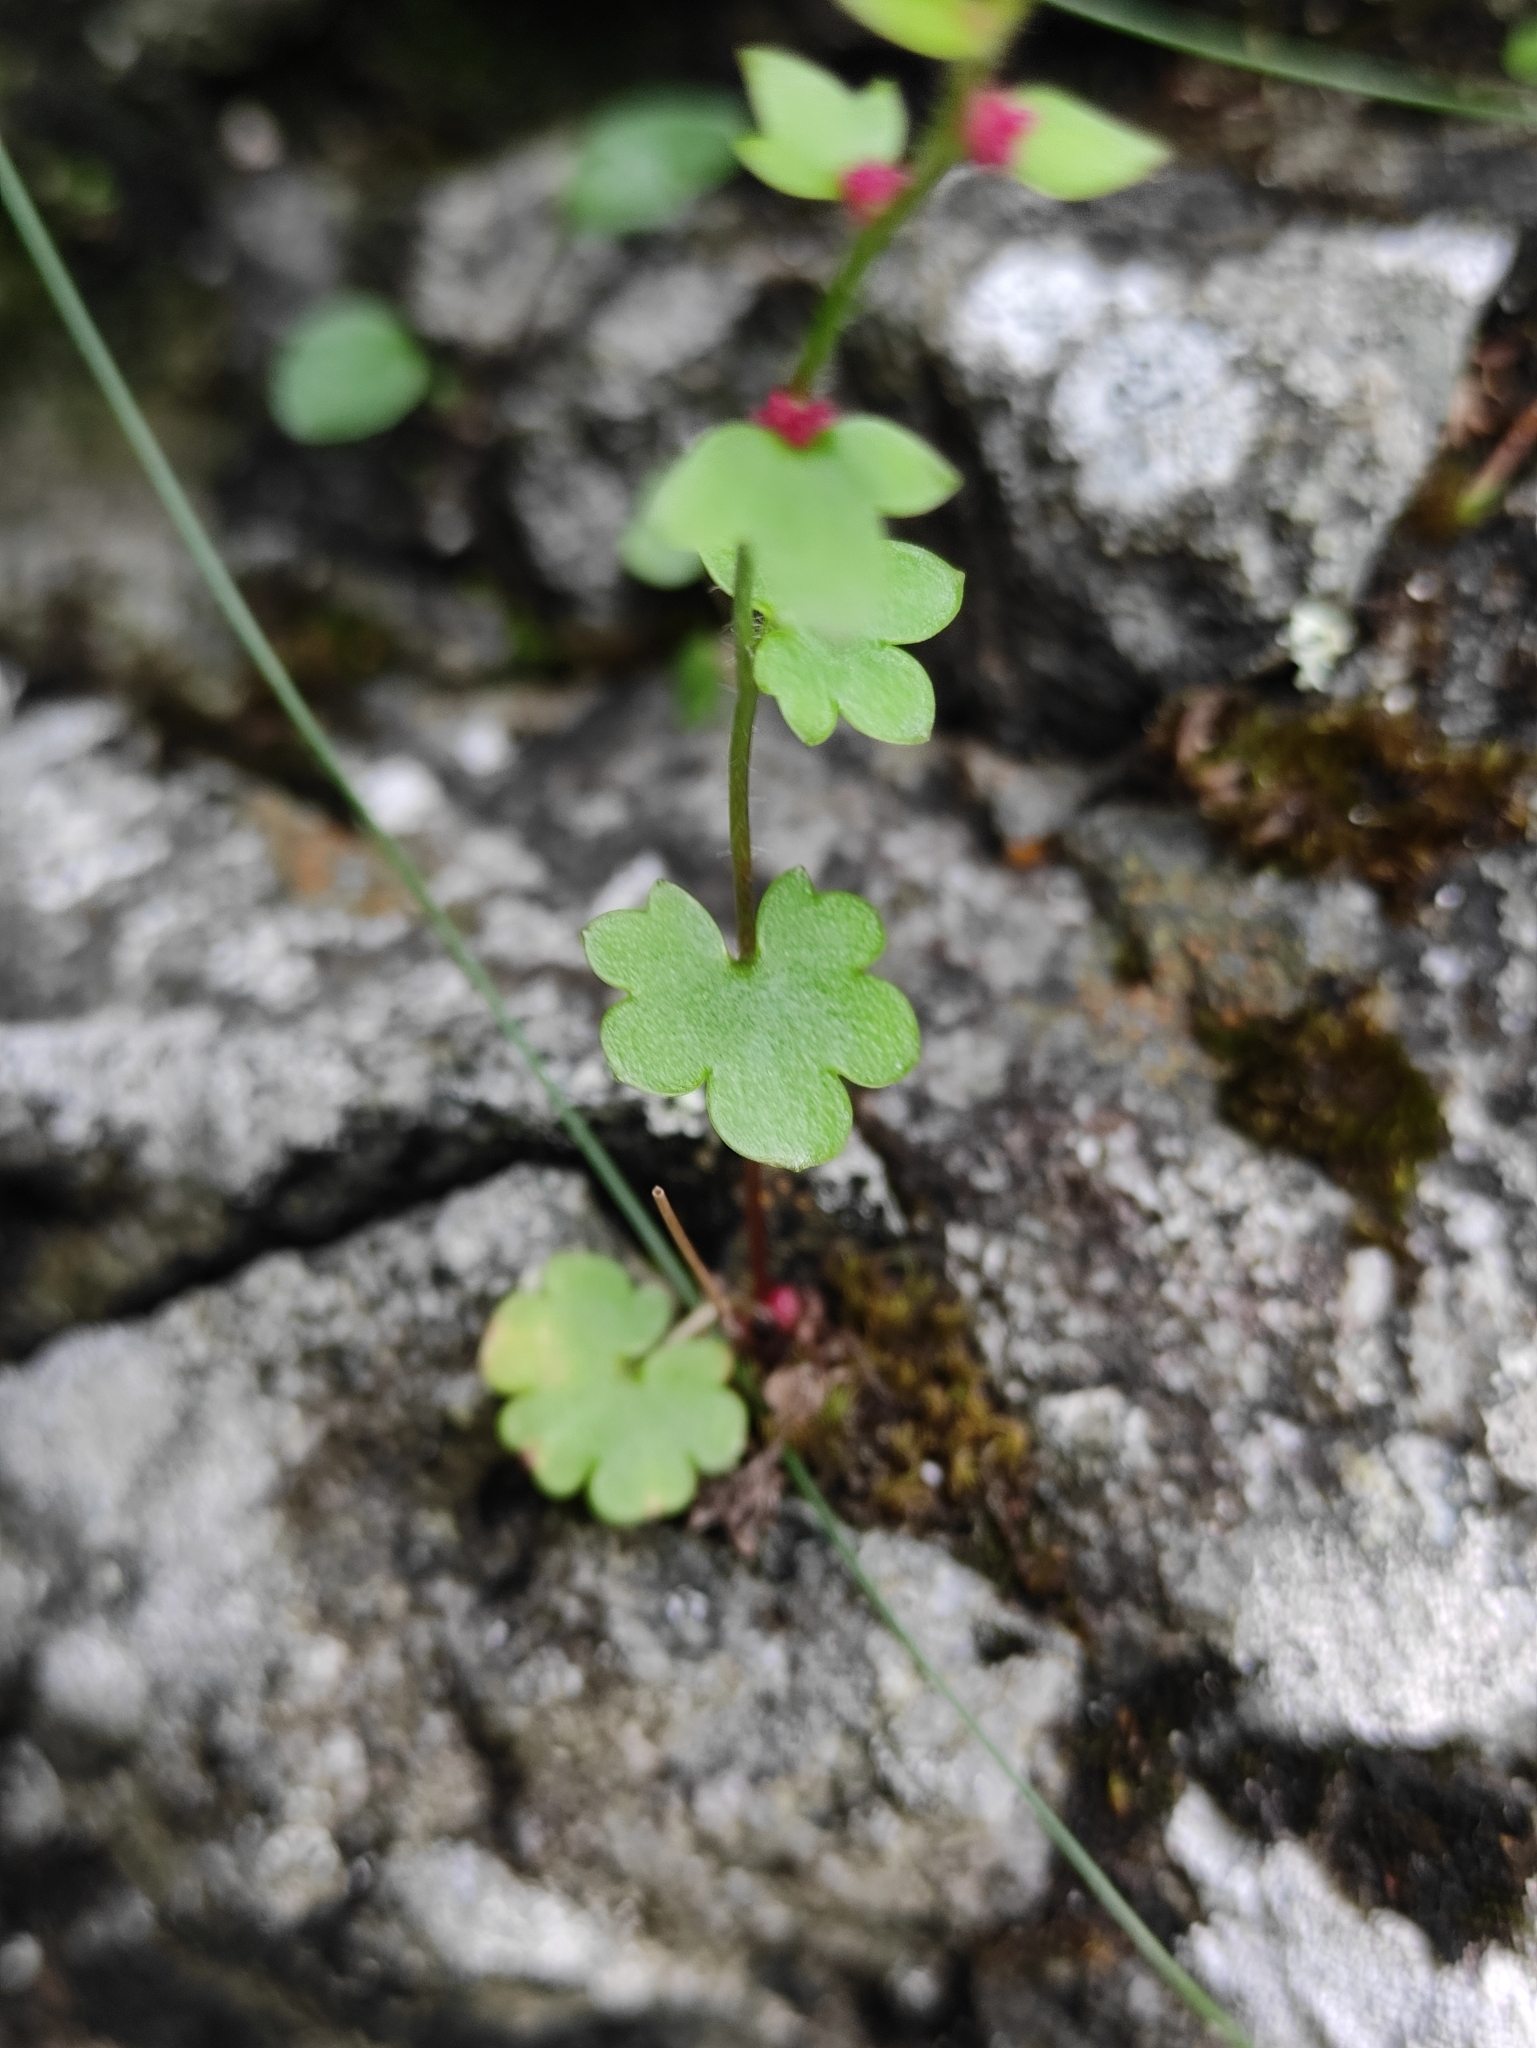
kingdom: Plantae
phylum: Tracheophyta
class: Magnoliopsida
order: Saxifragales
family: Saxifragaceae
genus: Saxifraga
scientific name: Saxifraga cernua
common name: Drooping saxifrage
